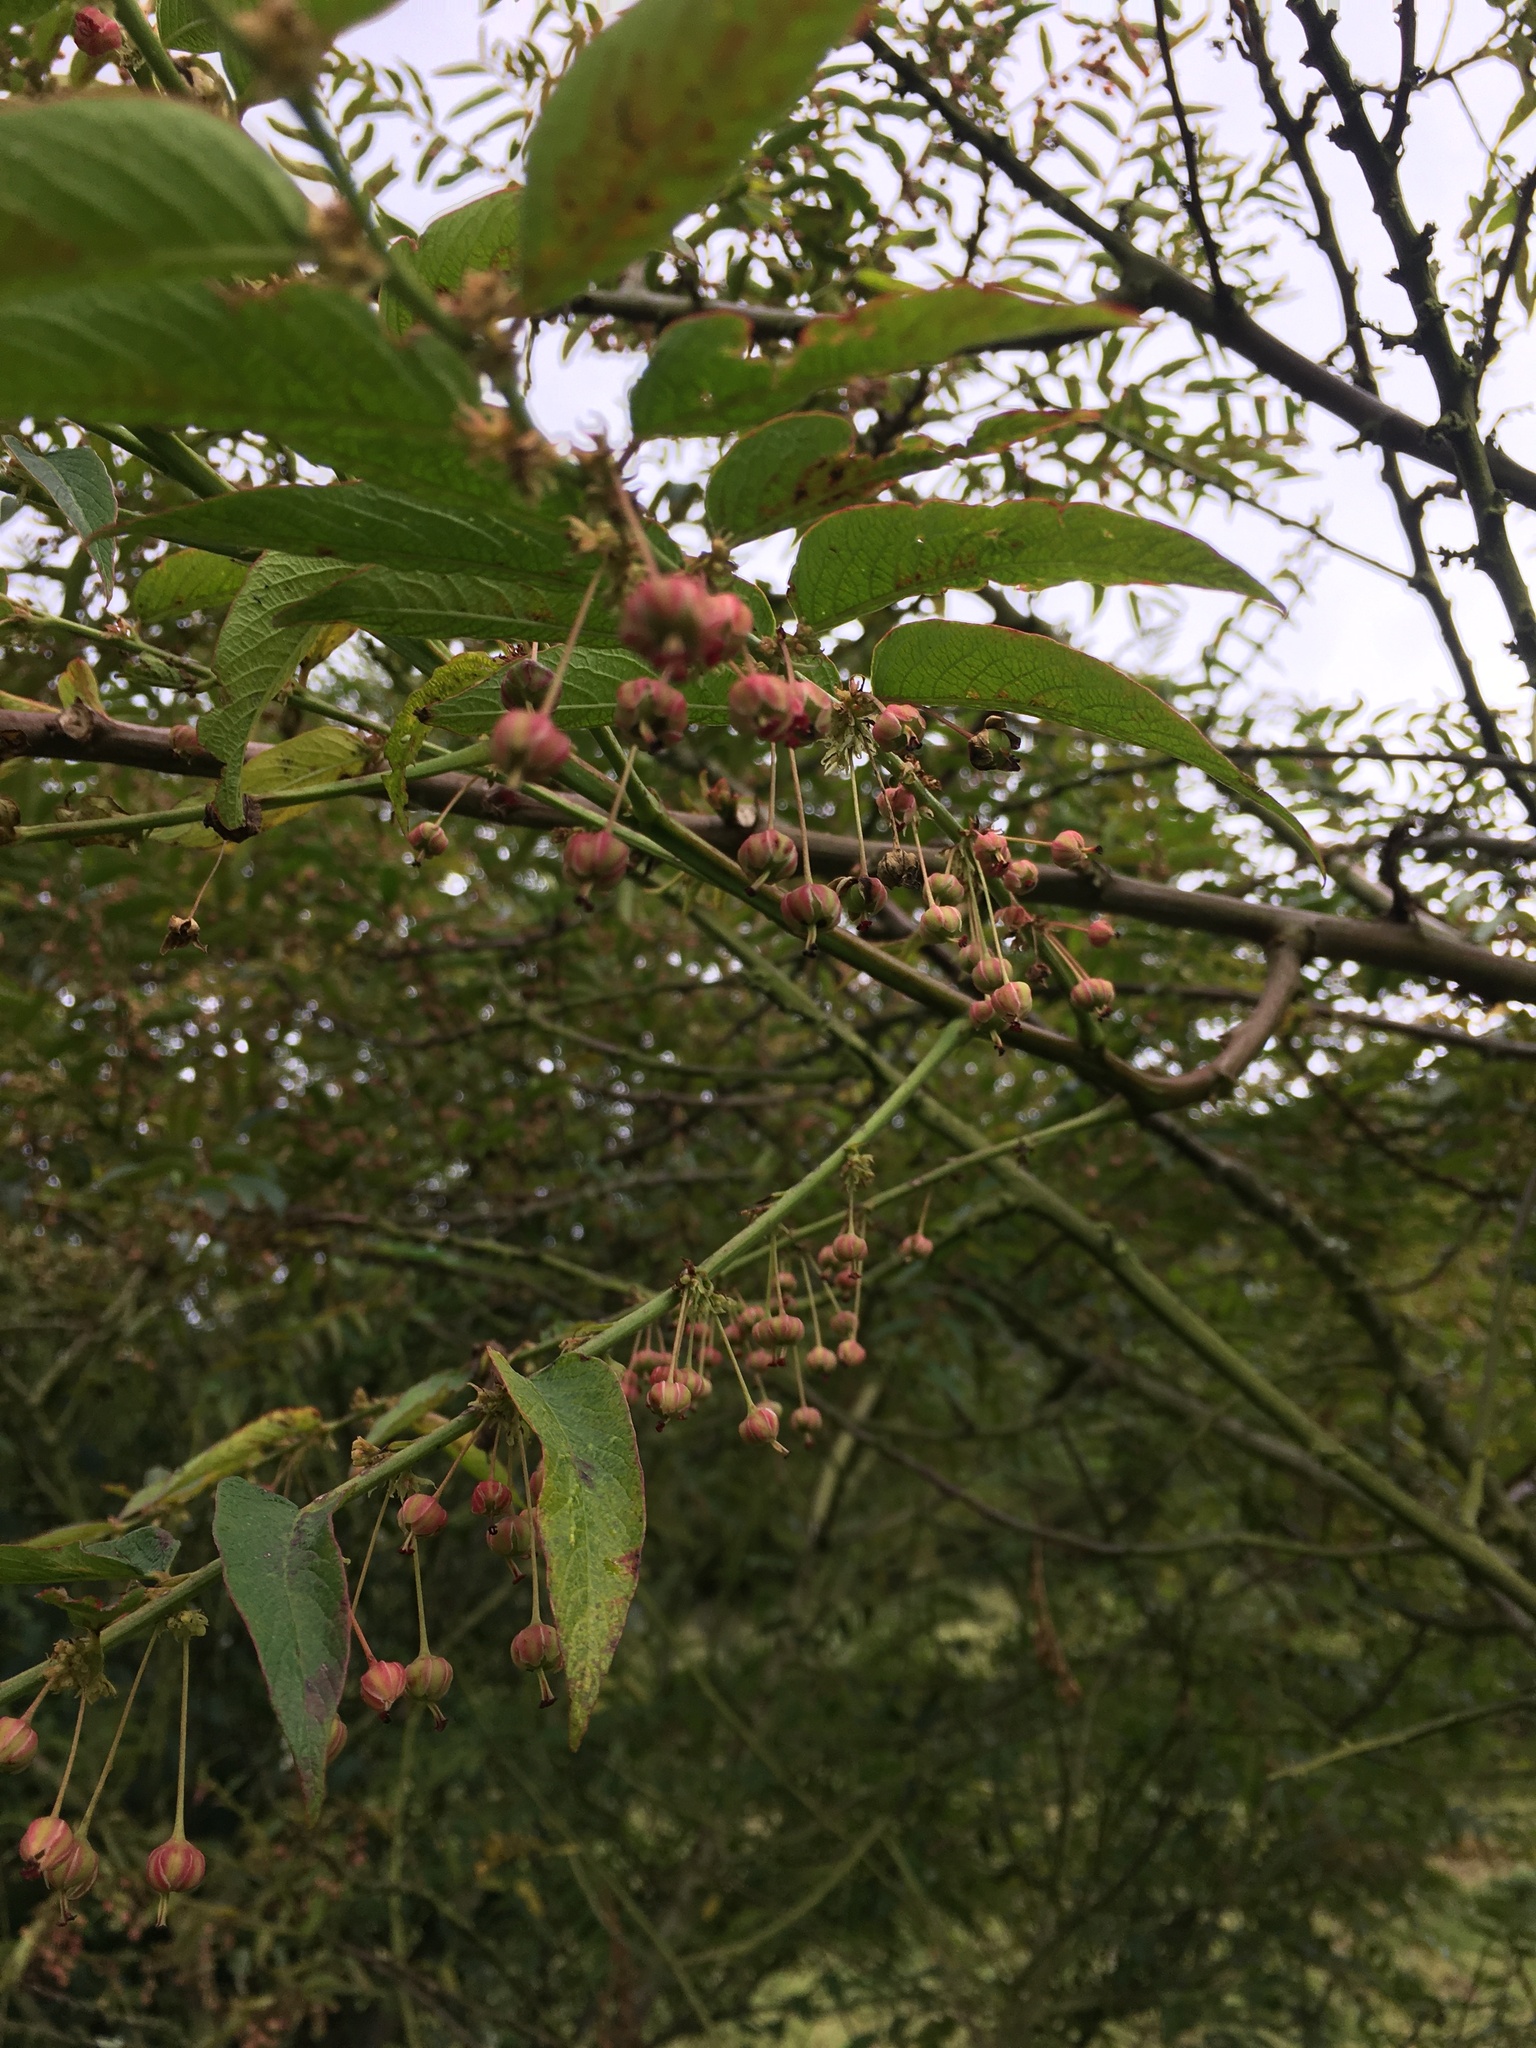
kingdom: Plantae
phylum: Tracheophyta
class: Magnoliopsida
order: Malpighiales
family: Phyllanthaceae
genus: Phyllanthus
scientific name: Phyllanthus salviifolius
